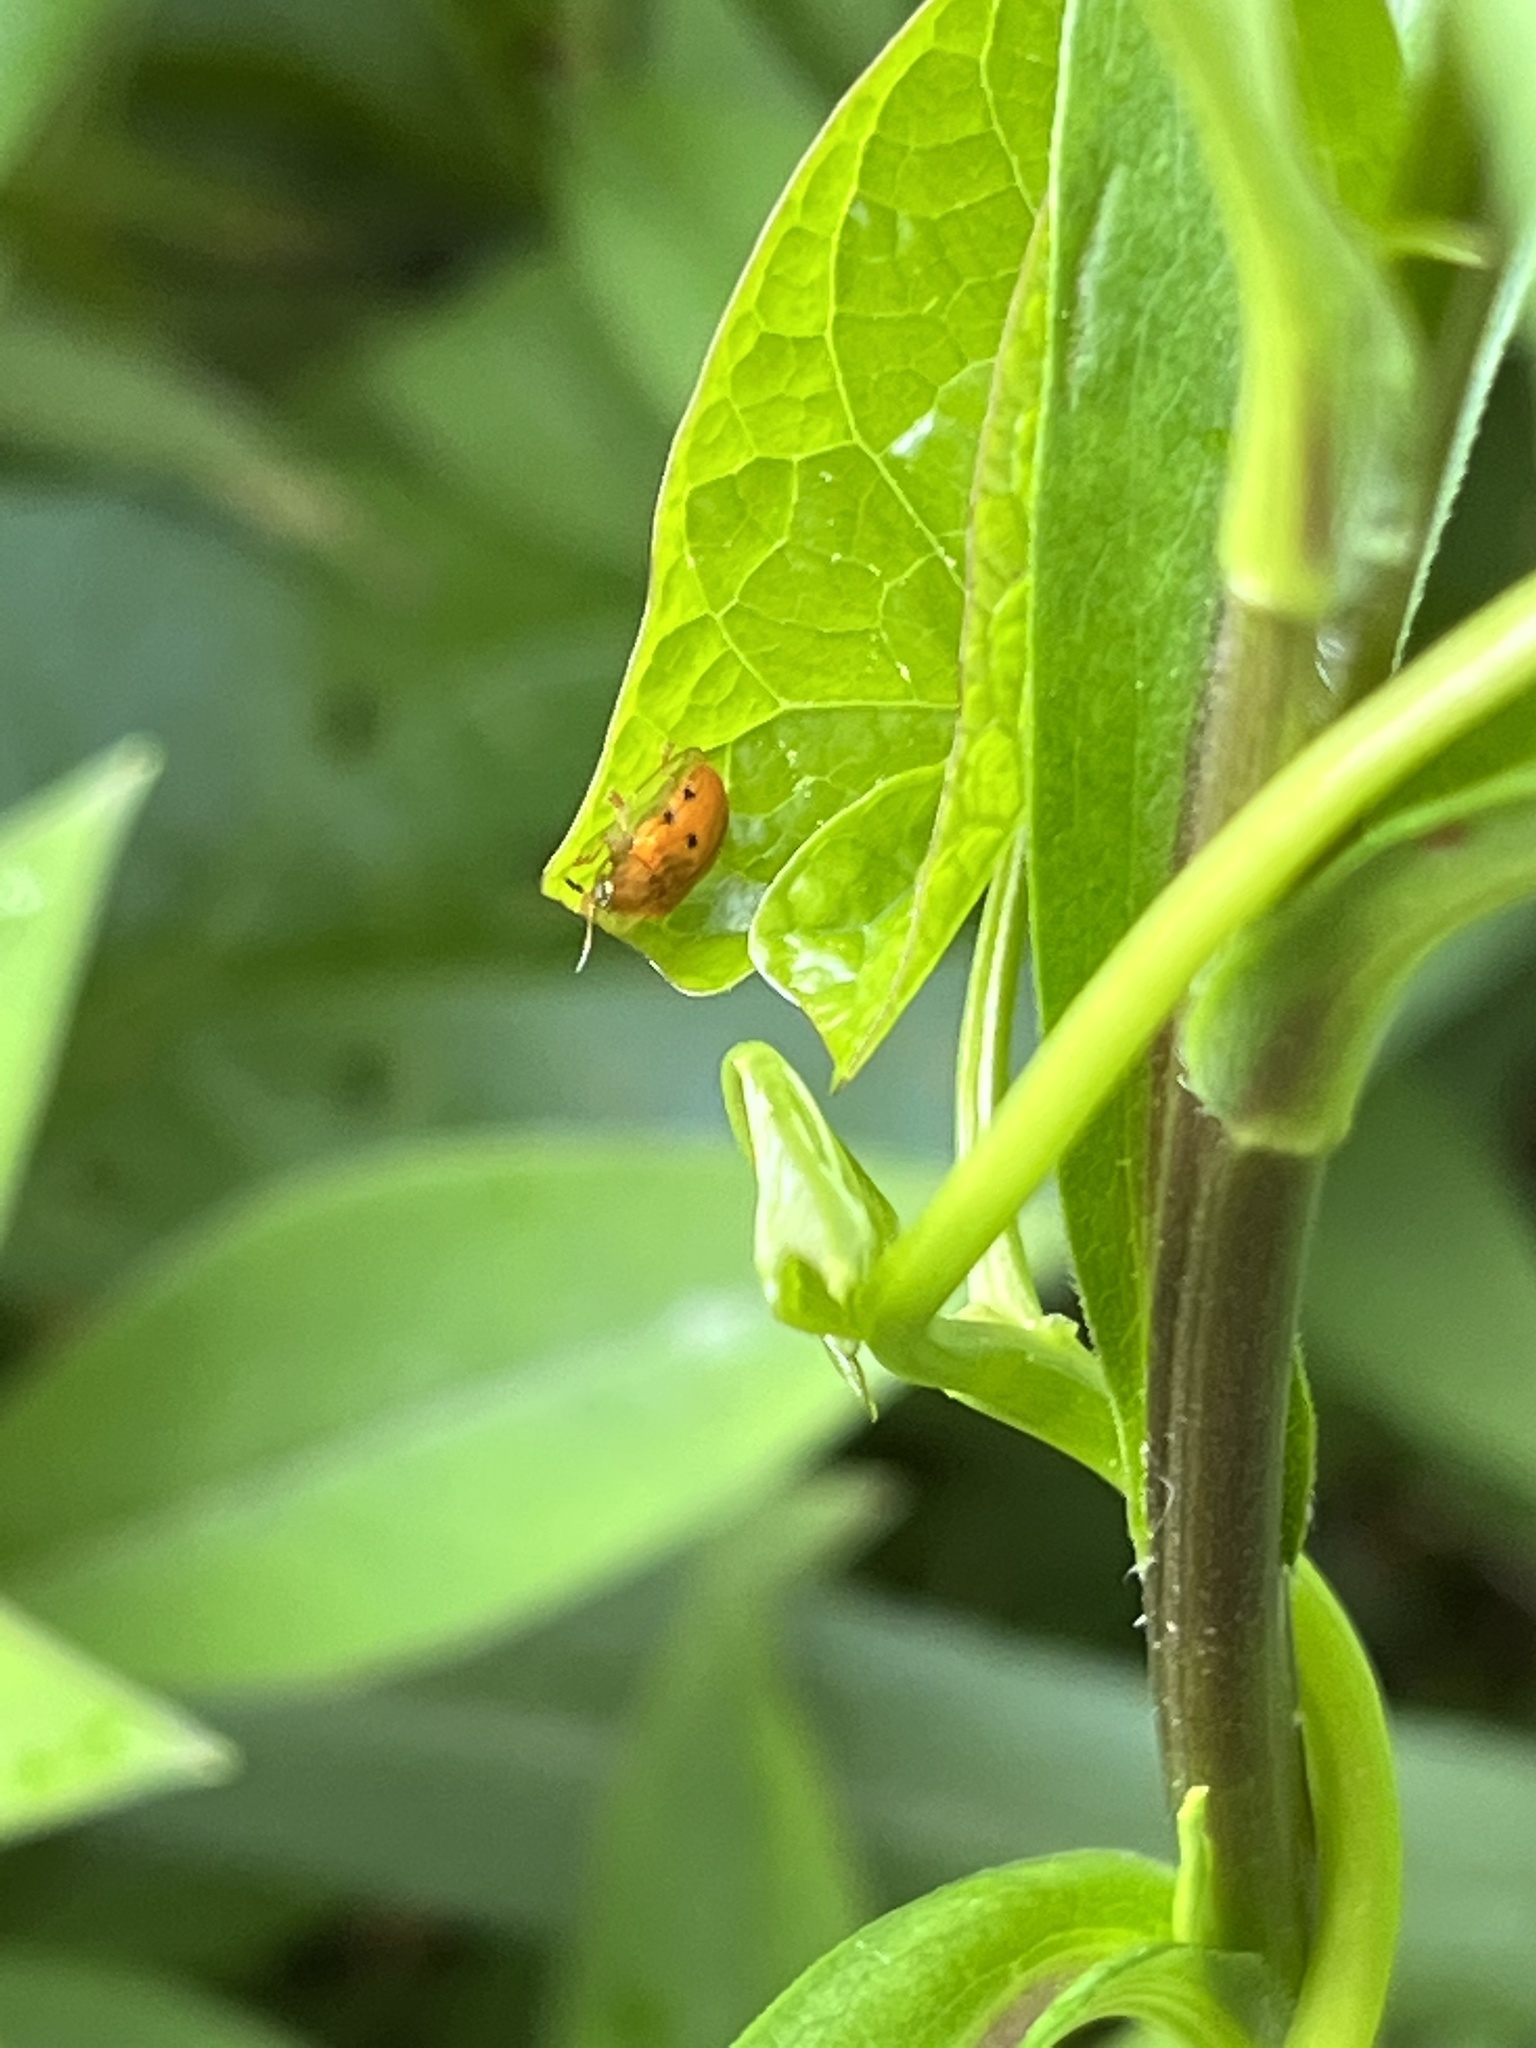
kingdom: Animalia
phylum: Arthropoda
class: Insecta
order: Coleoptera
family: Chrysomelidae
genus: Charidotella
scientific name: Charidotella sexpunctata
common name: Golden tortoise beetle
